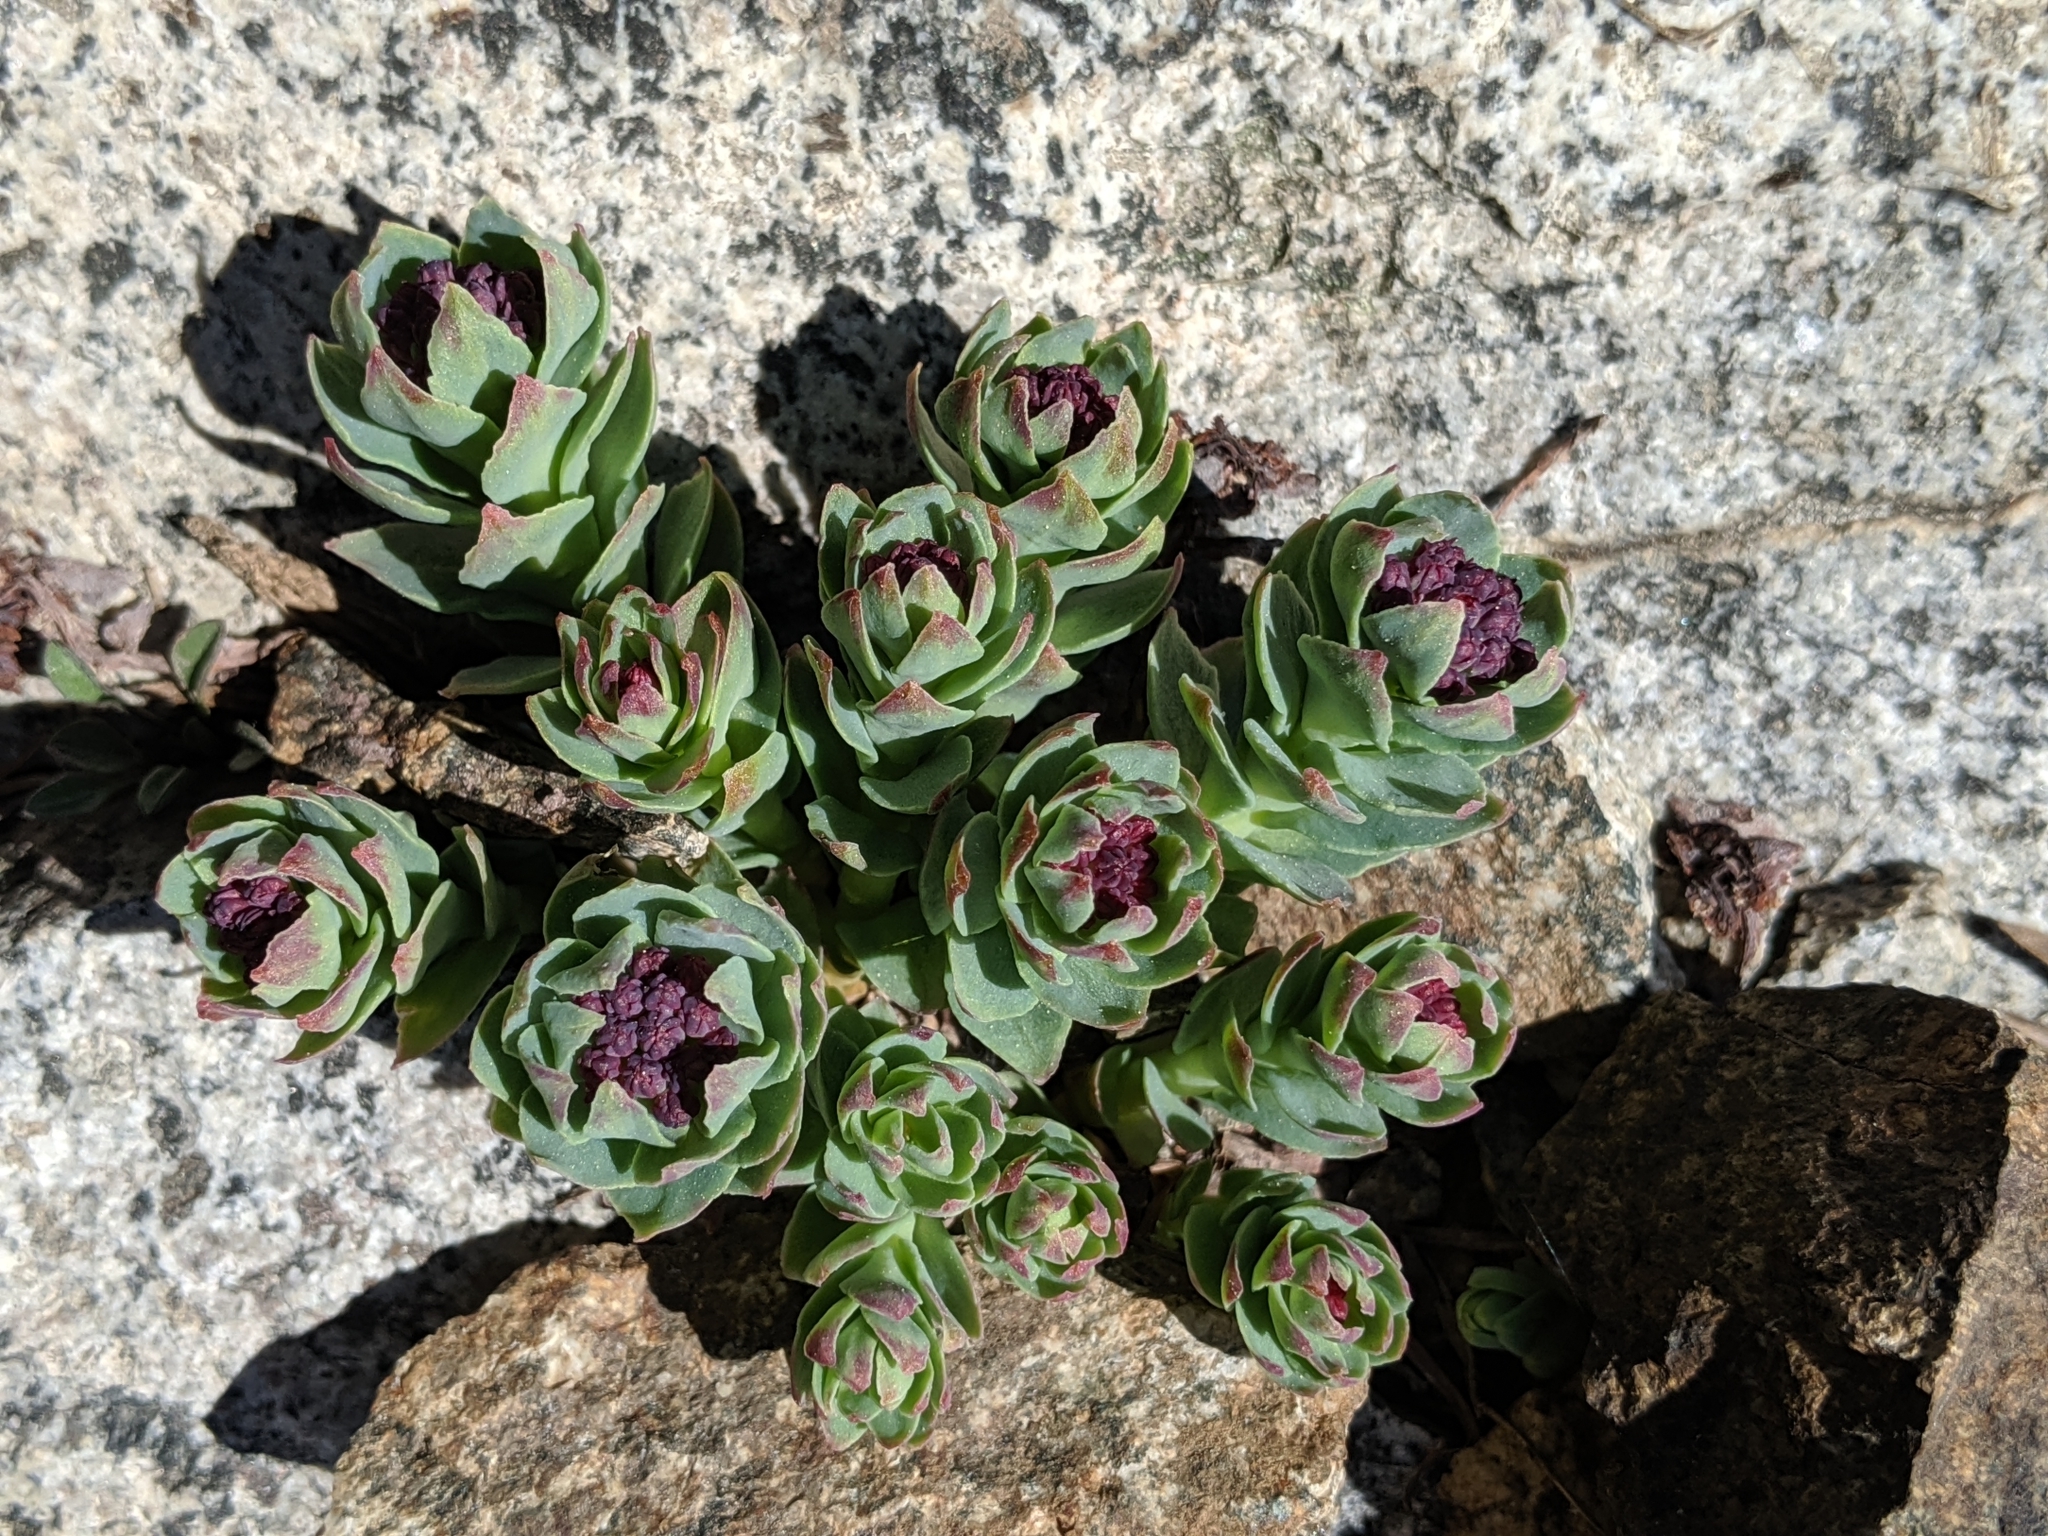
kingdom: Plantae
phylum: Tracheophyta
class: Magnoliopsida
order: Saxifragales
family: Crassulaceae
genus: Rhodiola
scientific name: Rhodiola integrifolia
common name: Western roseroot
